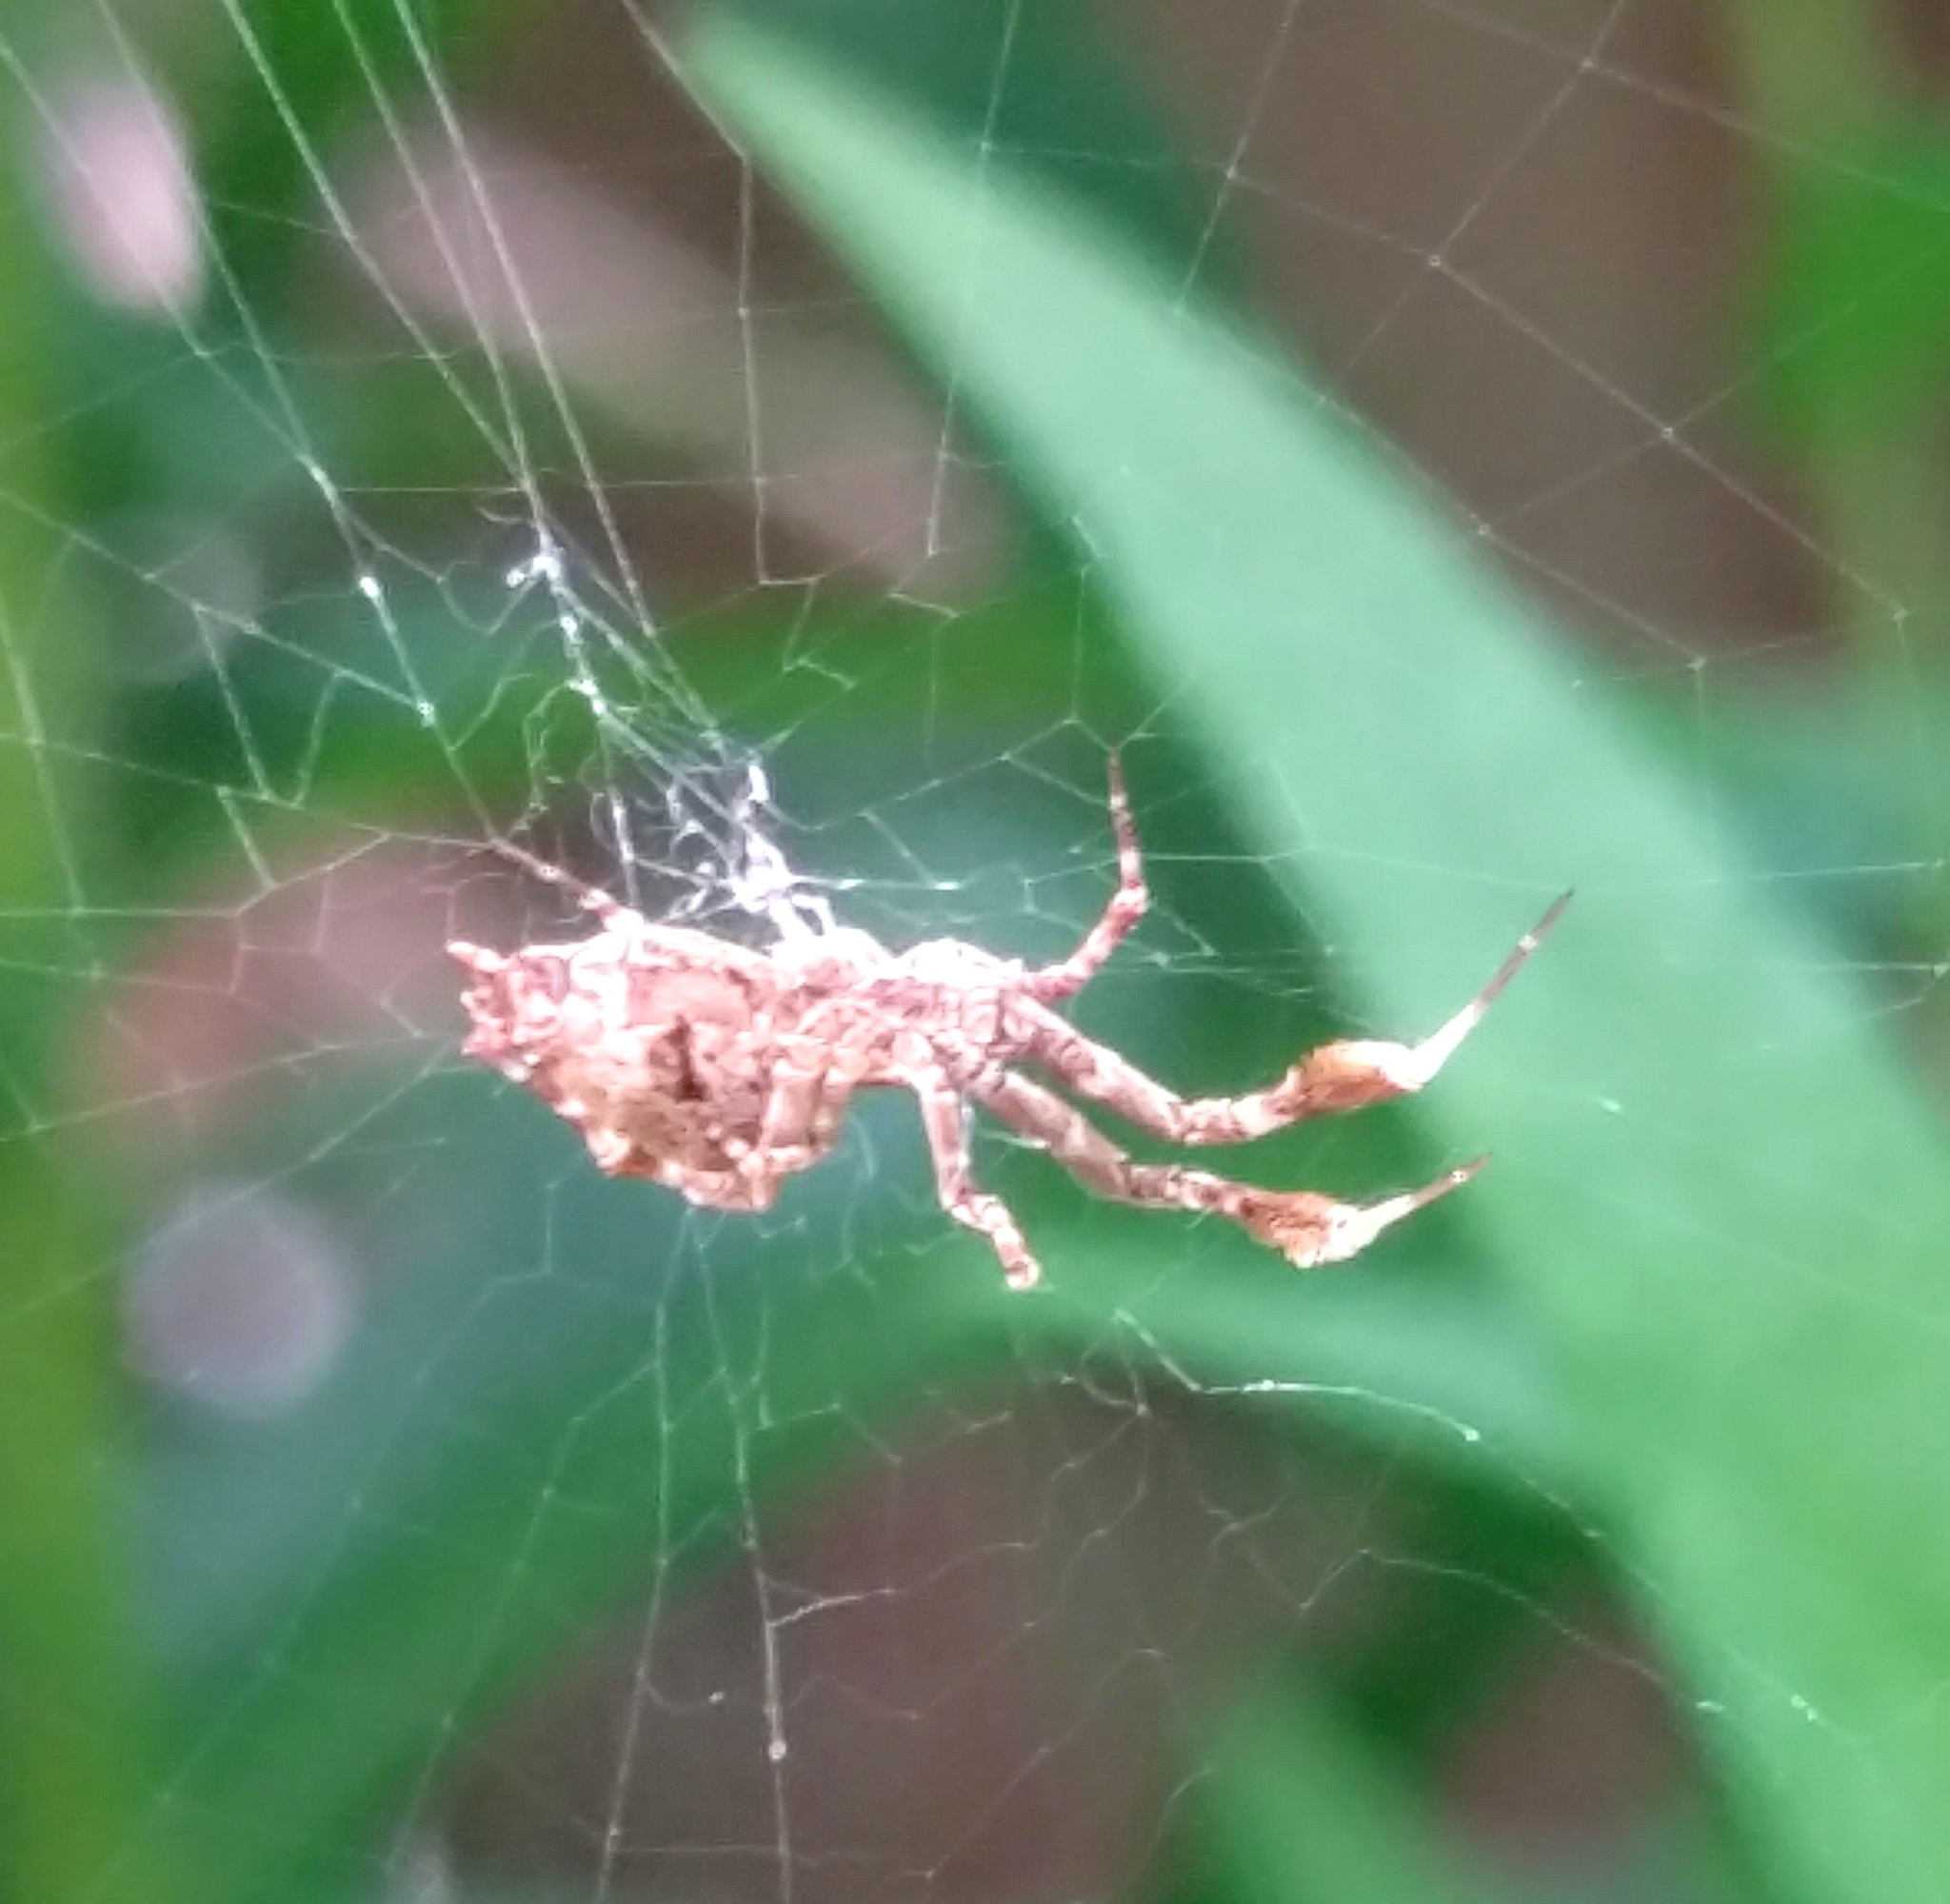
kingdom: Animalia
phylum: Arthropoda
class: Arachnida
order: Araneae
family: Uloboridae
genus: Uloborus
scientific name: Uloborus glomosus
